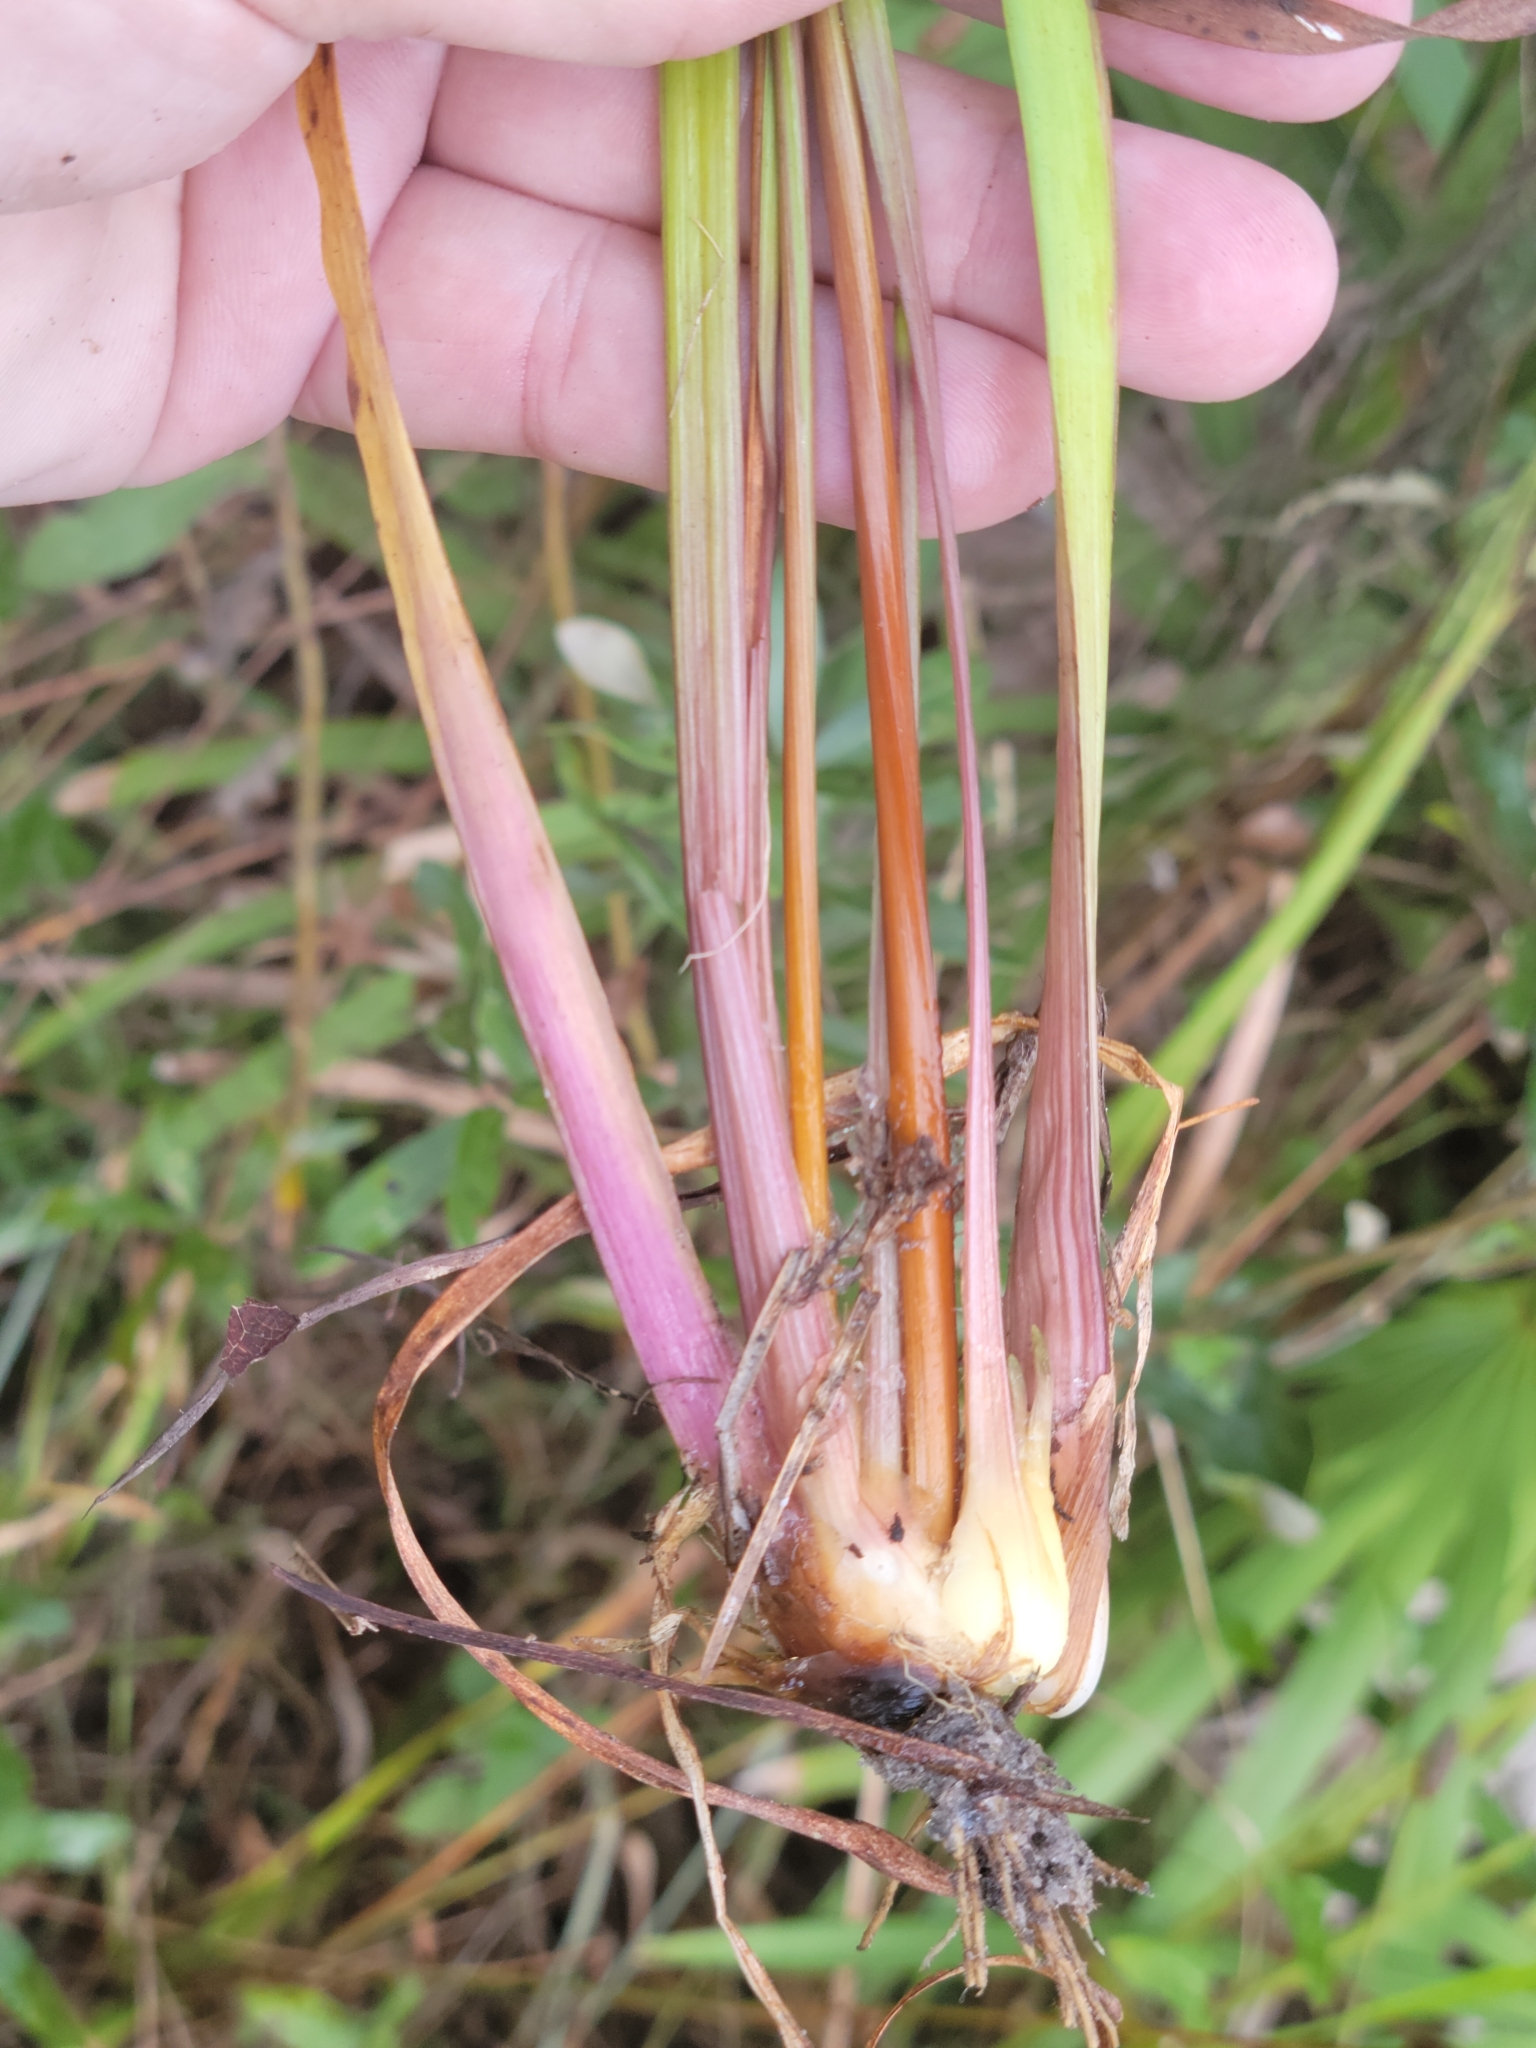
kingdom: Plantae
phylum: Tracheophyta
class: Liliopsida
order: Poales
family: Xyridaceae
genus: Xyris
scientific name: Xyris platylepis
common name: Tall yelloweyed grass
